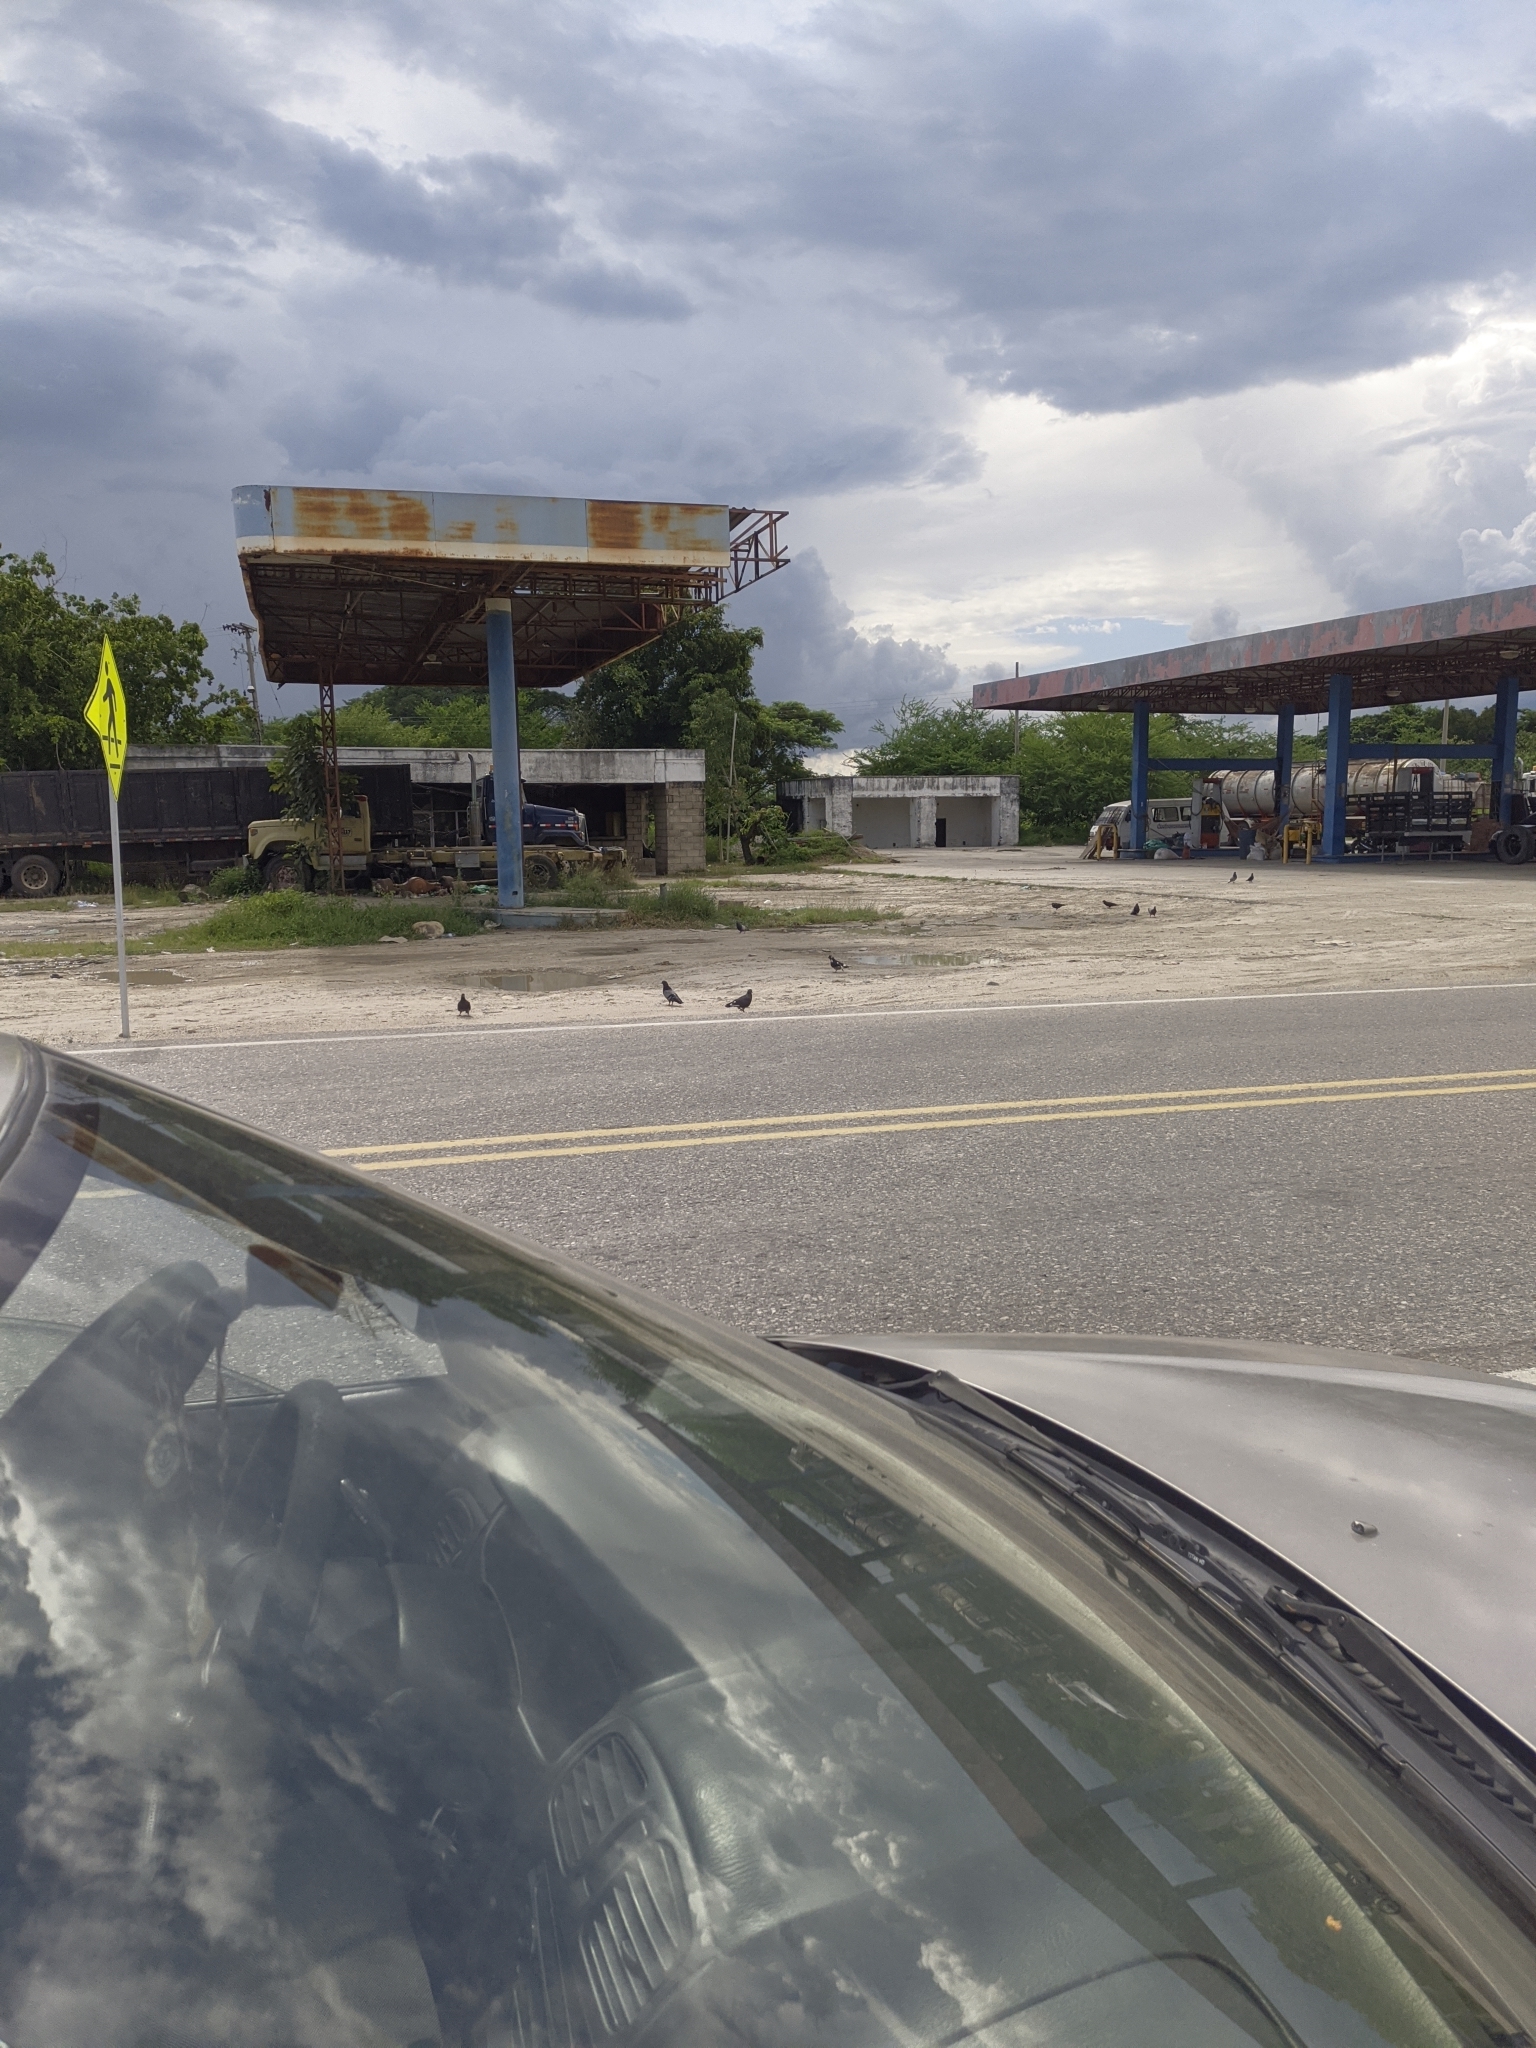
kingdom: Animalia
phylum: Chordata
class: Aves
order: Columbiformes
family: Columbidae
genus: Columba
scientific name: Columba livia
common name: Rock pigeon
